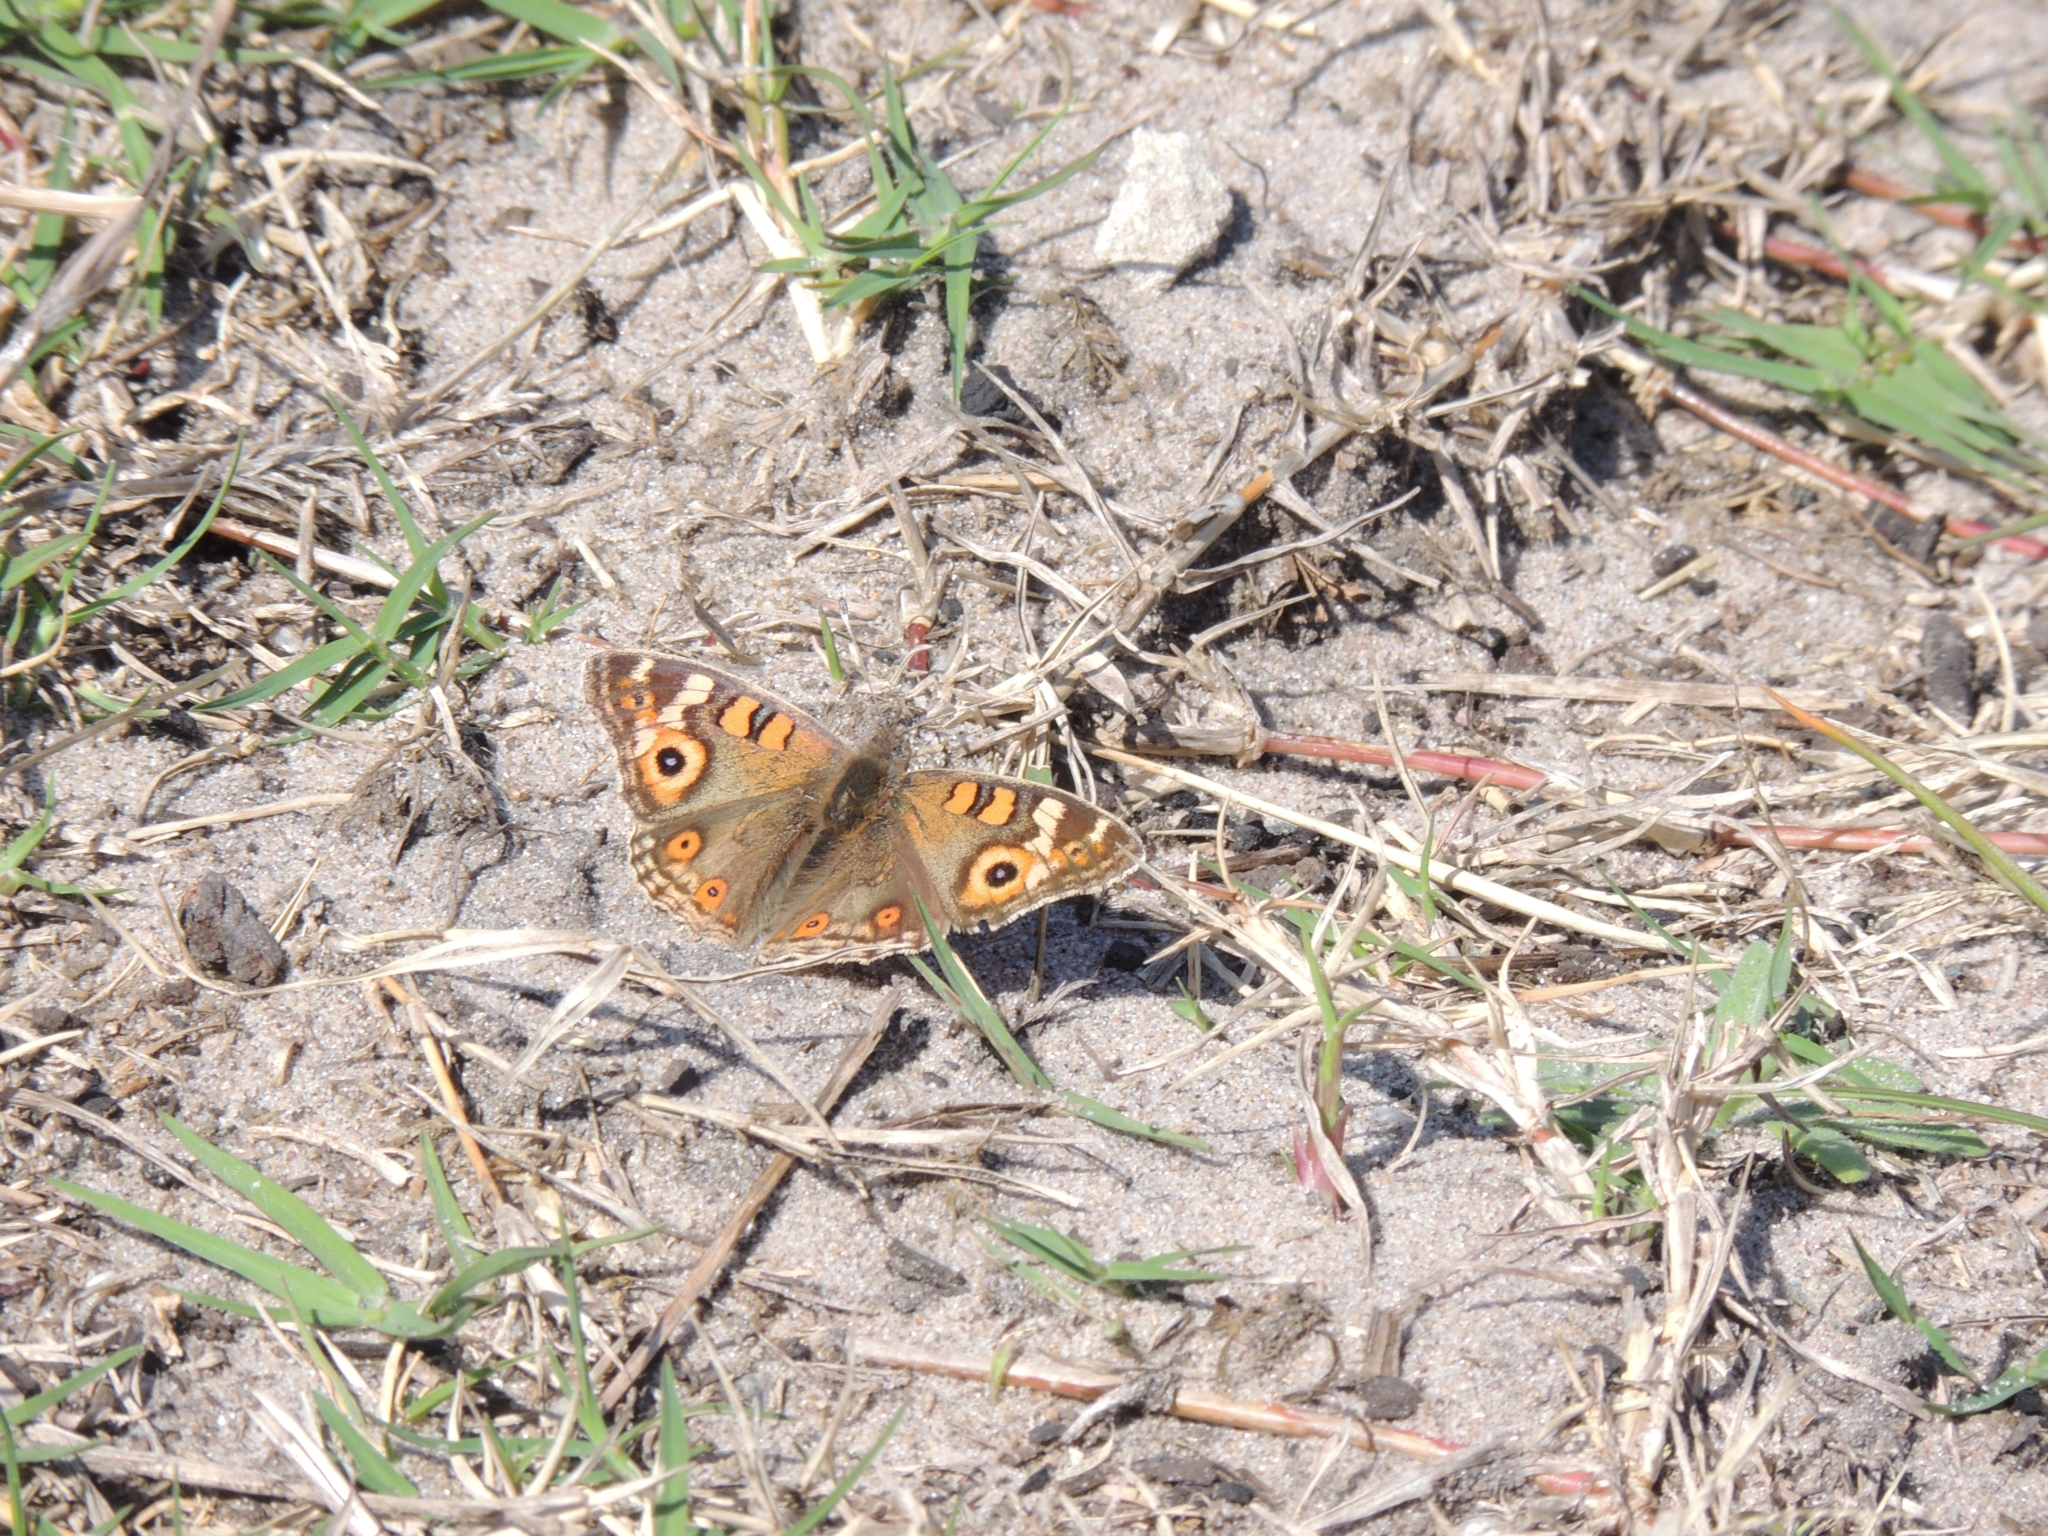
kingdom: Animalia
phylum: Arthropoda
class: Insecta
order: Lepidoptera
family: Nymphalidae
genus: Junonia
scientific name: Junonia villida
